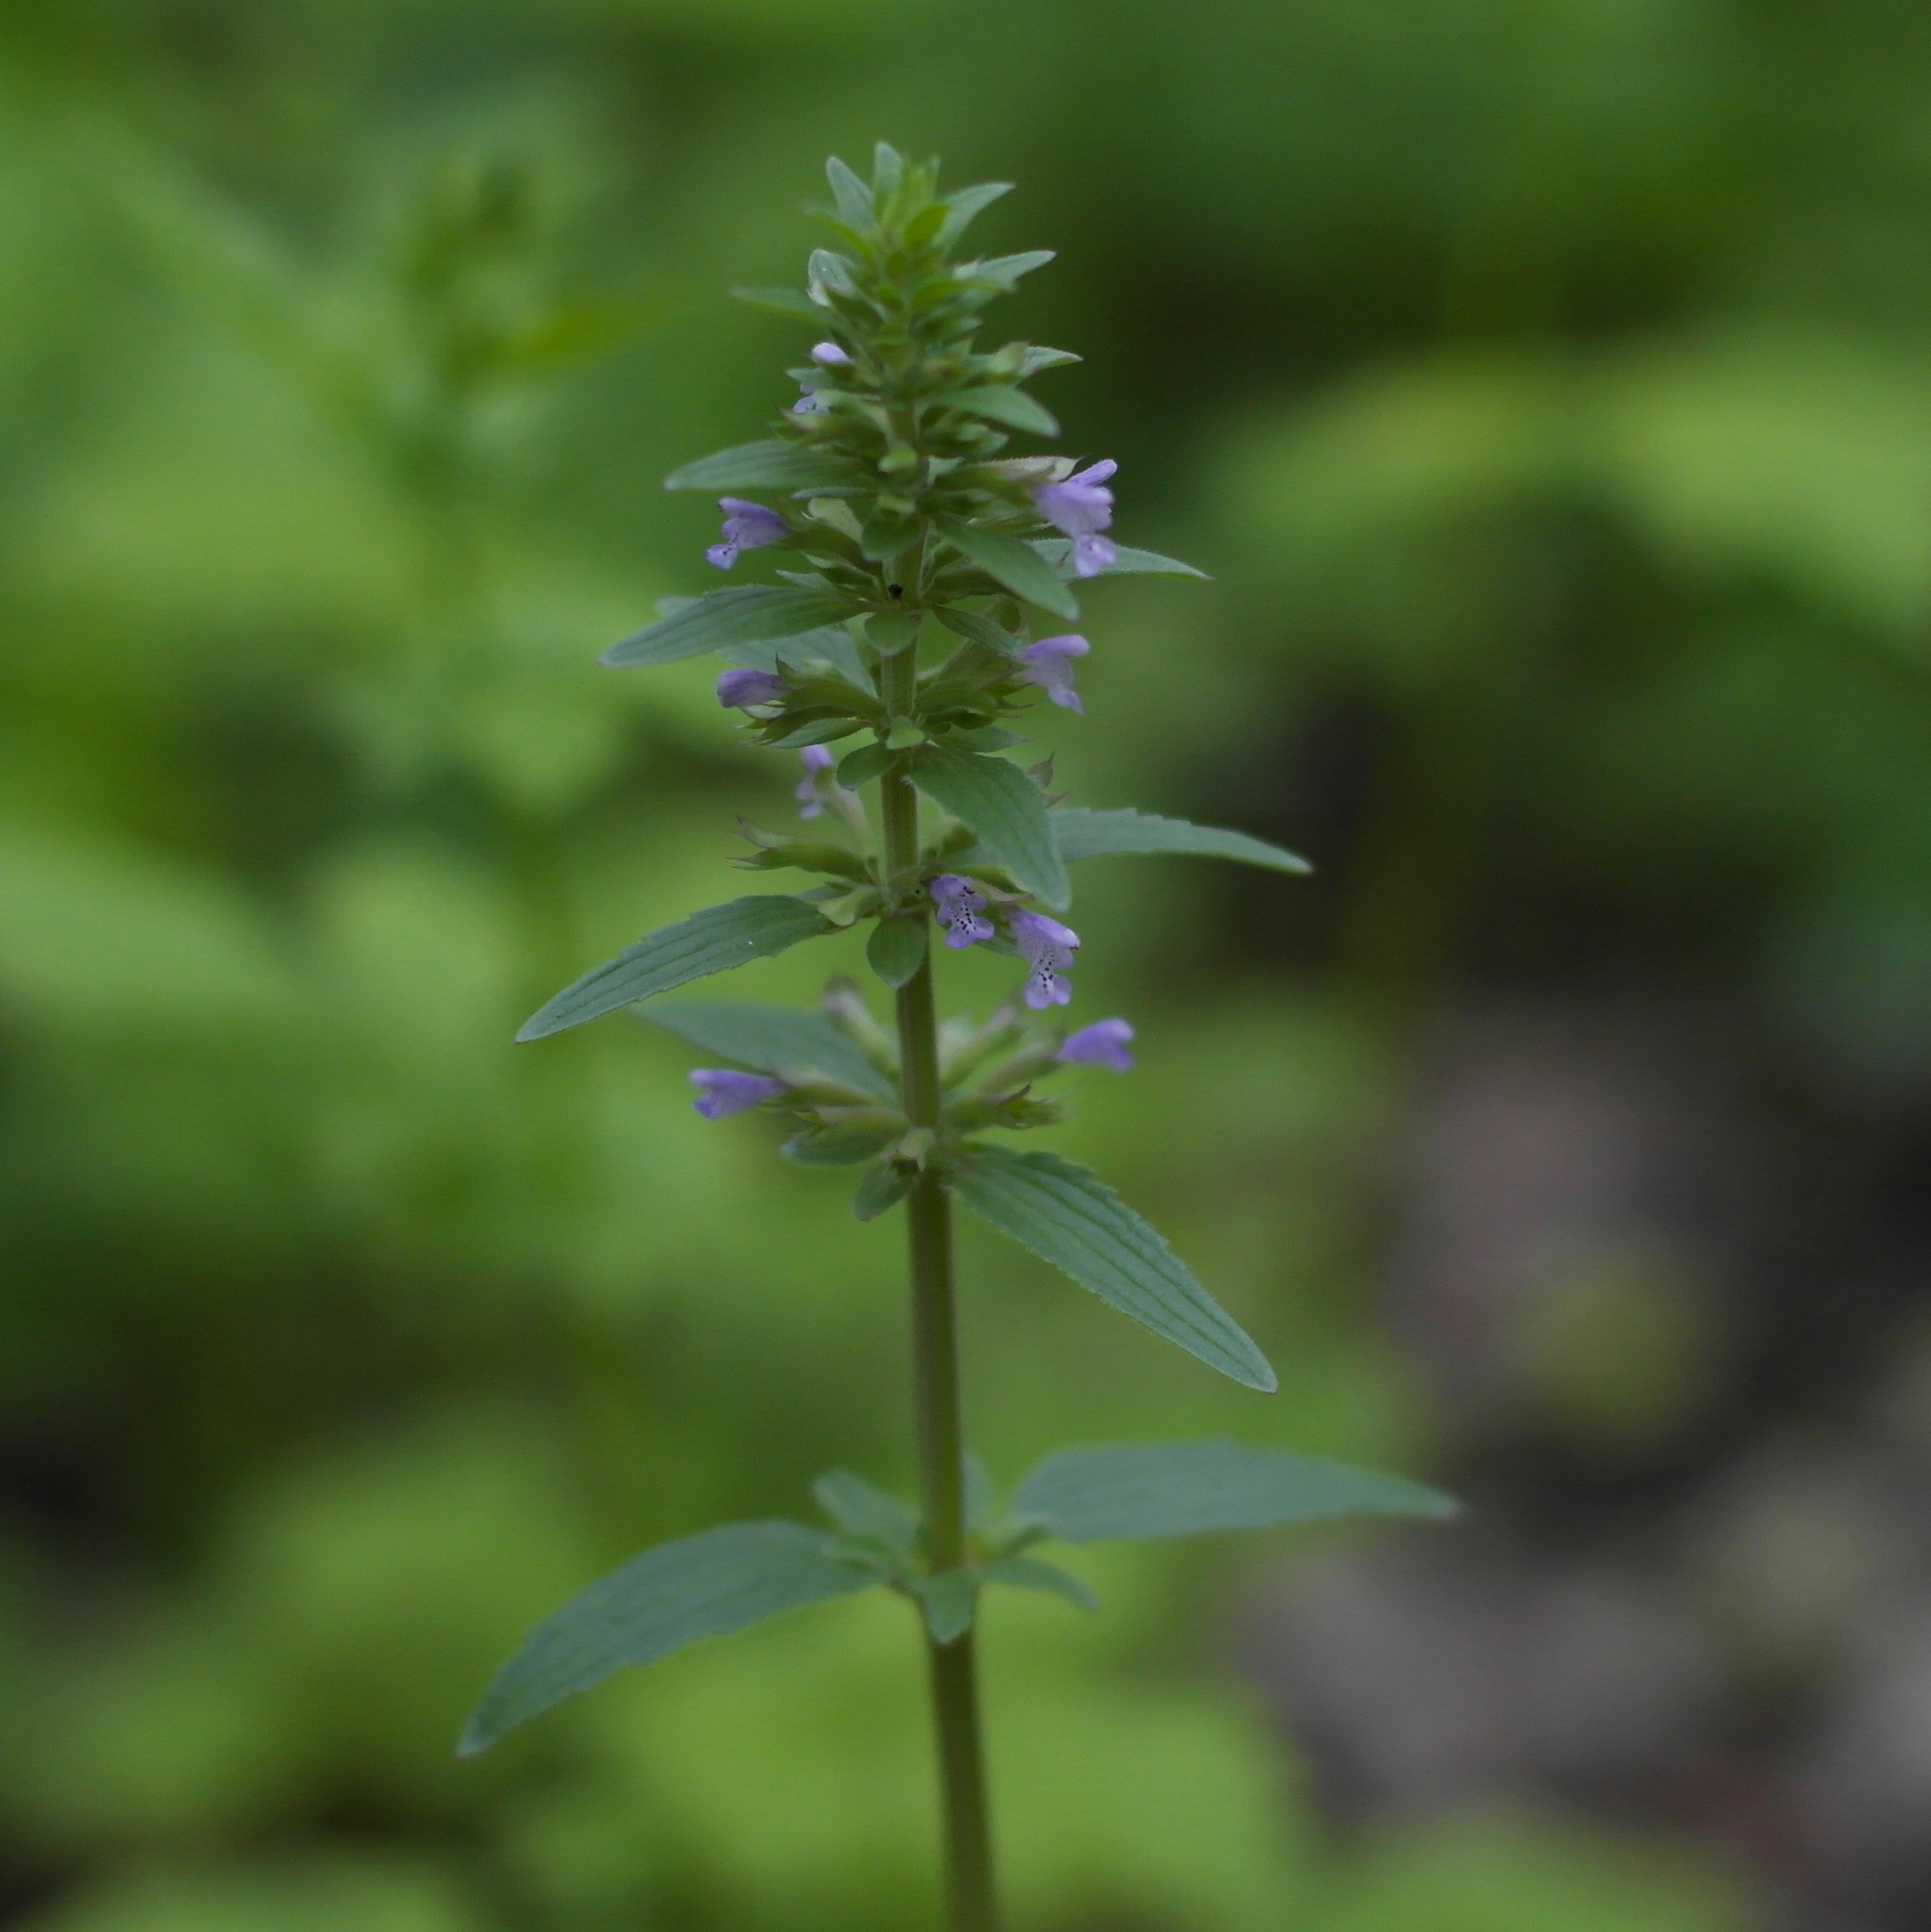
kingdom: Plantae
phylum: Tracheophyta
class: Magnoliopsida
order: Lamiales
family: Lamiaceae
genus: Dracocephalum
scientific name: Dracocephalum thymiflorum
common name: Thymeleaf dragonhead
